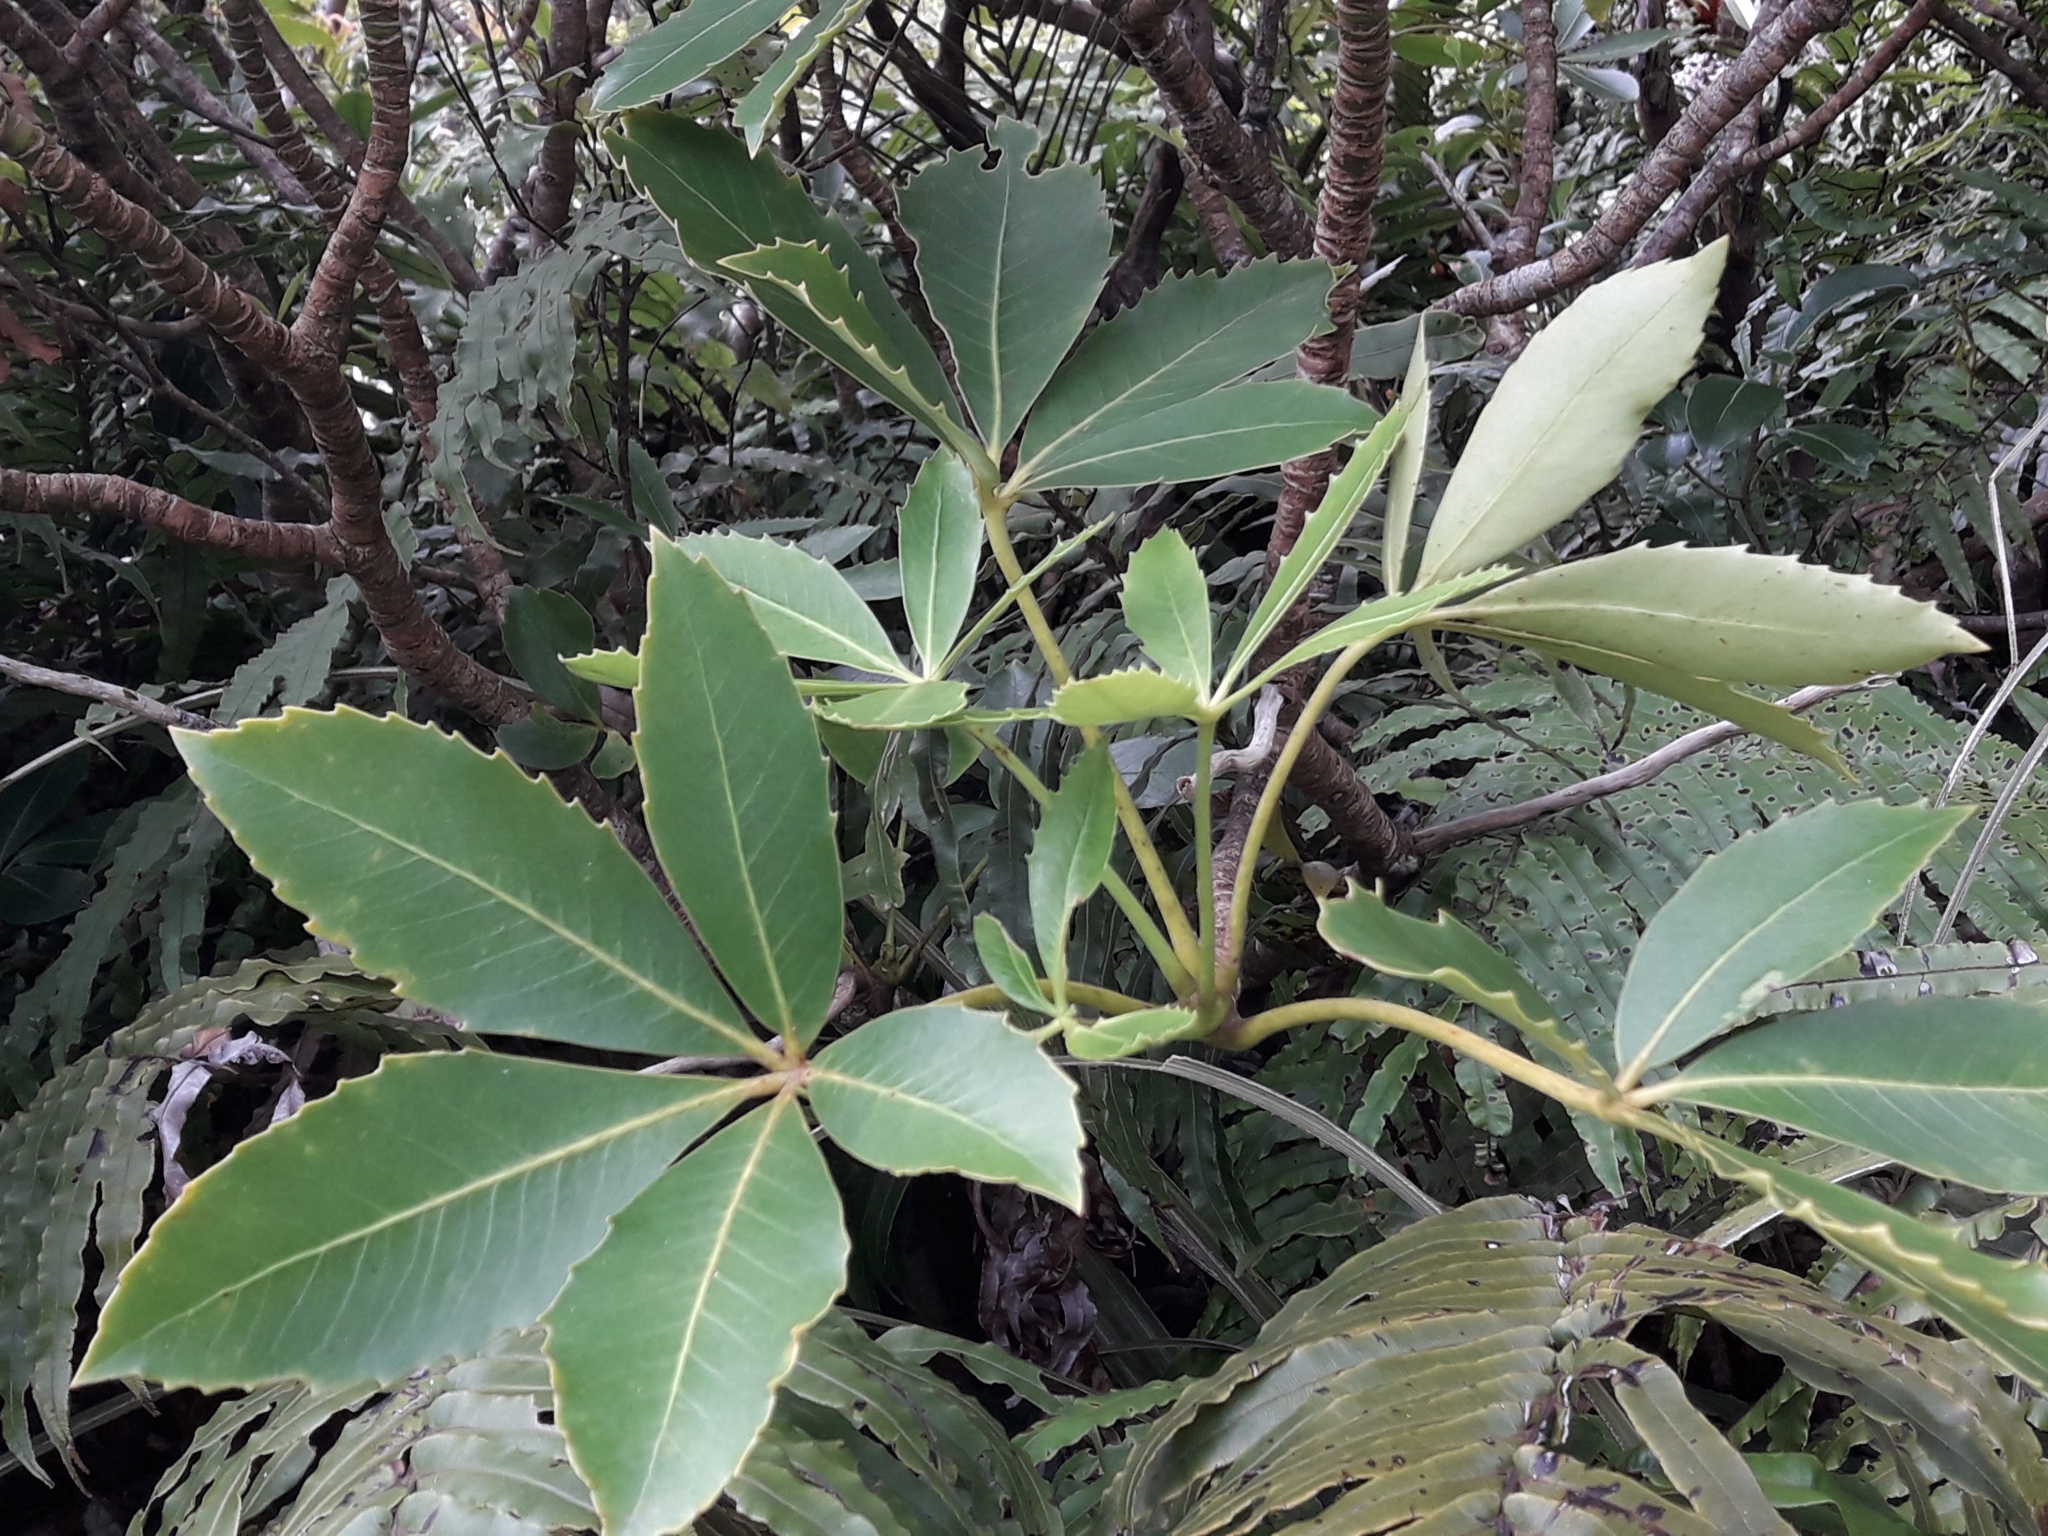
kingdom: Plantae
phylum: Tracheophyta
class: Magnoliopsida
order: Apiales
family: Araliaceae
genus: Neopanax
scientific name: Neopanax colensoi
